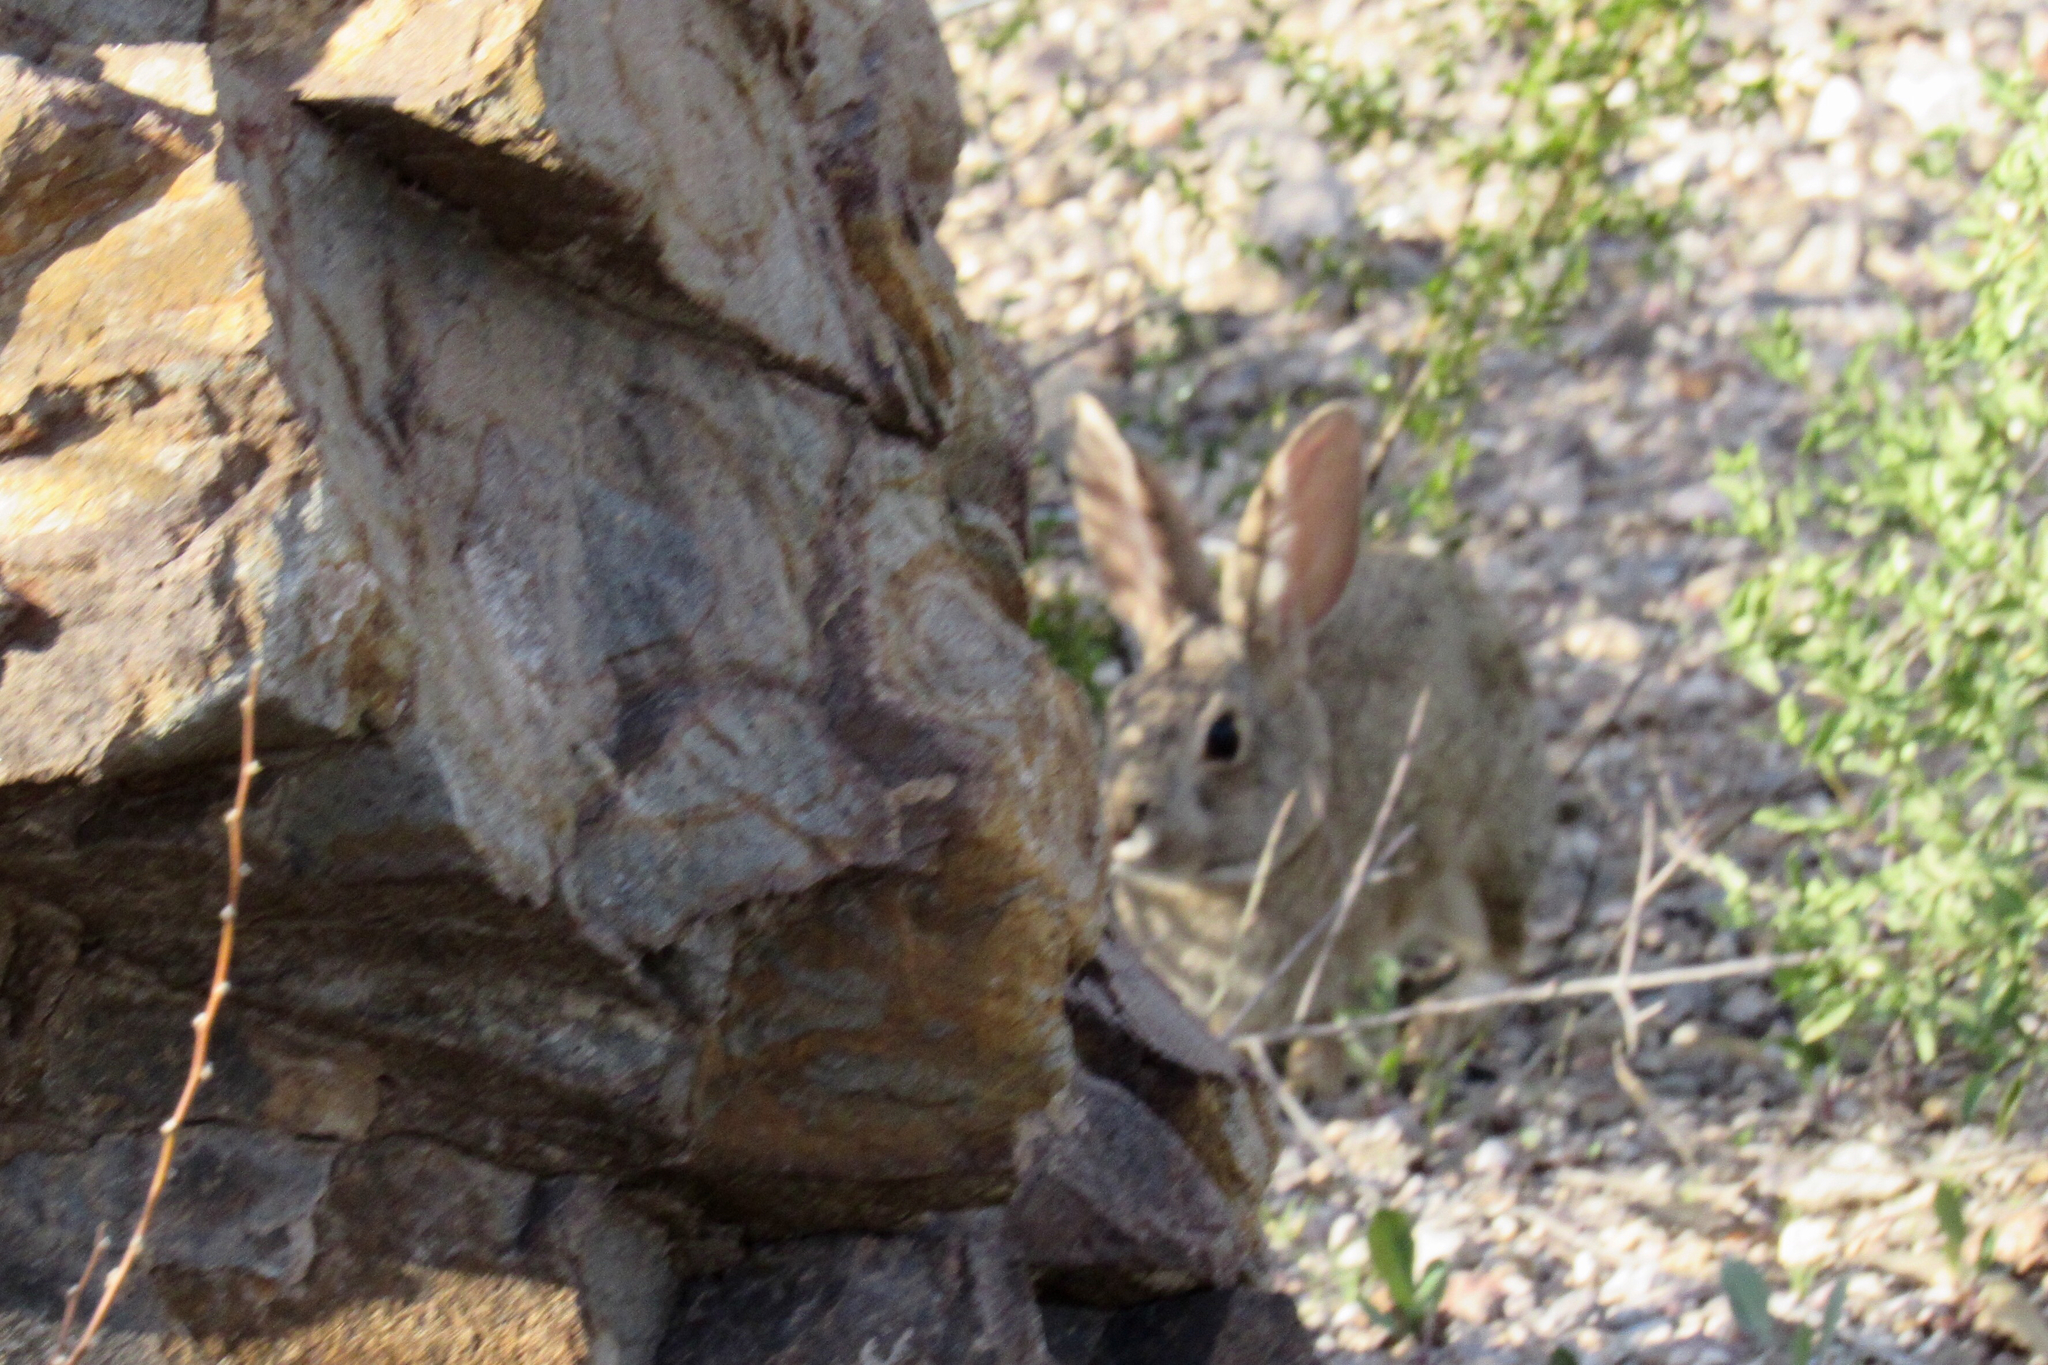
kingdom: Animalia
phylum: Chordata
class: Mammalia
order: Lagomorpha
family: Leporidae
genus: Sylvilagus
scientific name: Sylvilagus audubonii
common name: Desert cottontail
